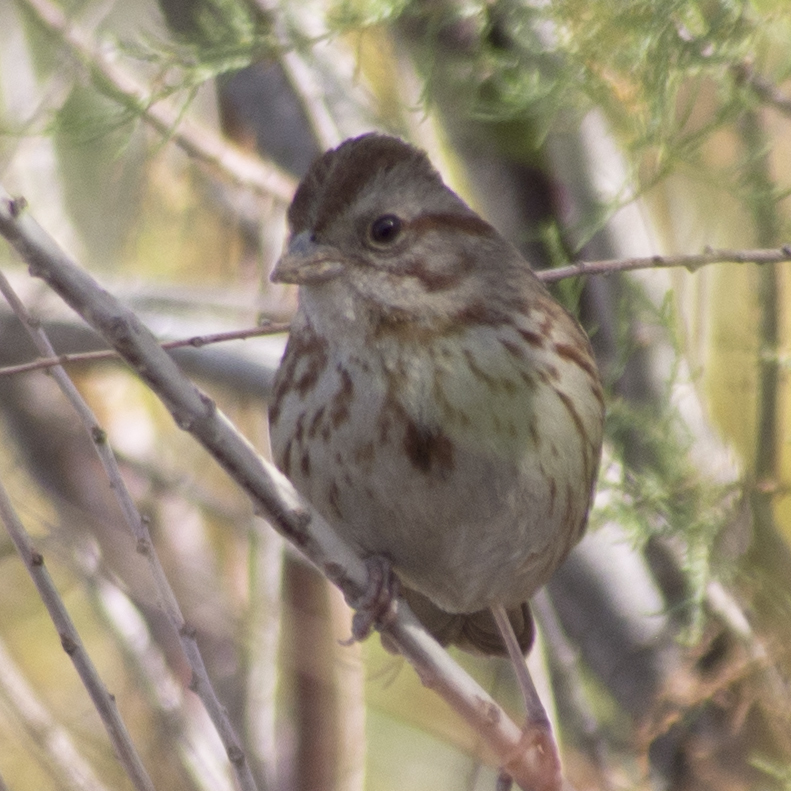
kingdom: Animalia
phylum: Chordata
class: Aves
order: Passeriformes
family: Passerellidae
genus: Melospiza
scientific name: Melospiza melodia
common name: Song sparrow
